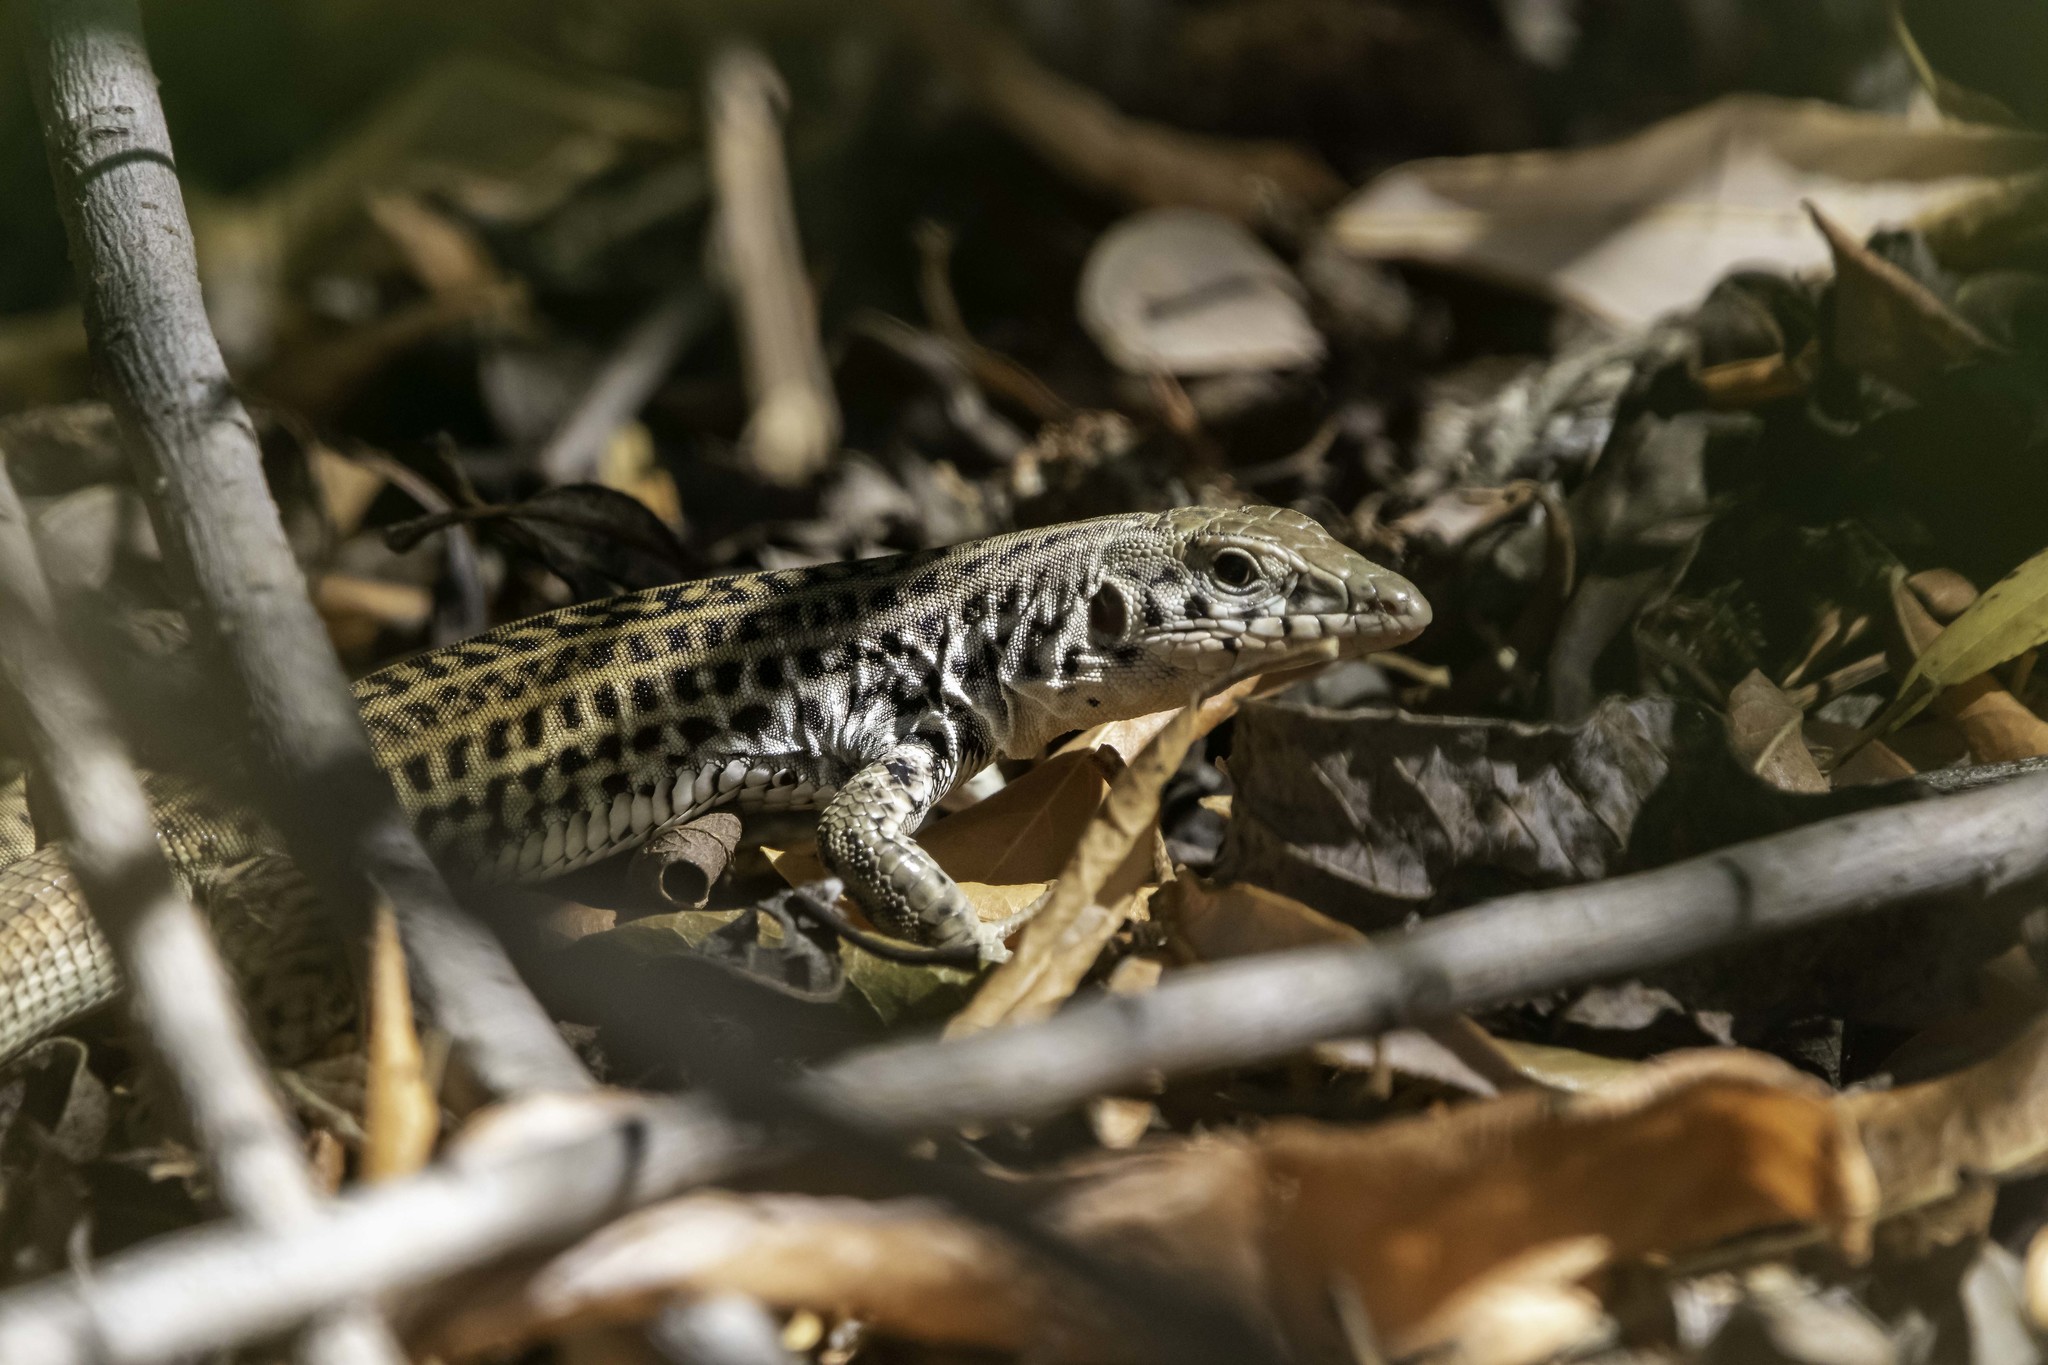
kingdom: Animalia
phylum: Chordata
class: Squamata
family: Teiidae
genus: Aspidoscelis
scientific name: Aspidoscelis tigris
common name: Tiger whiptail
